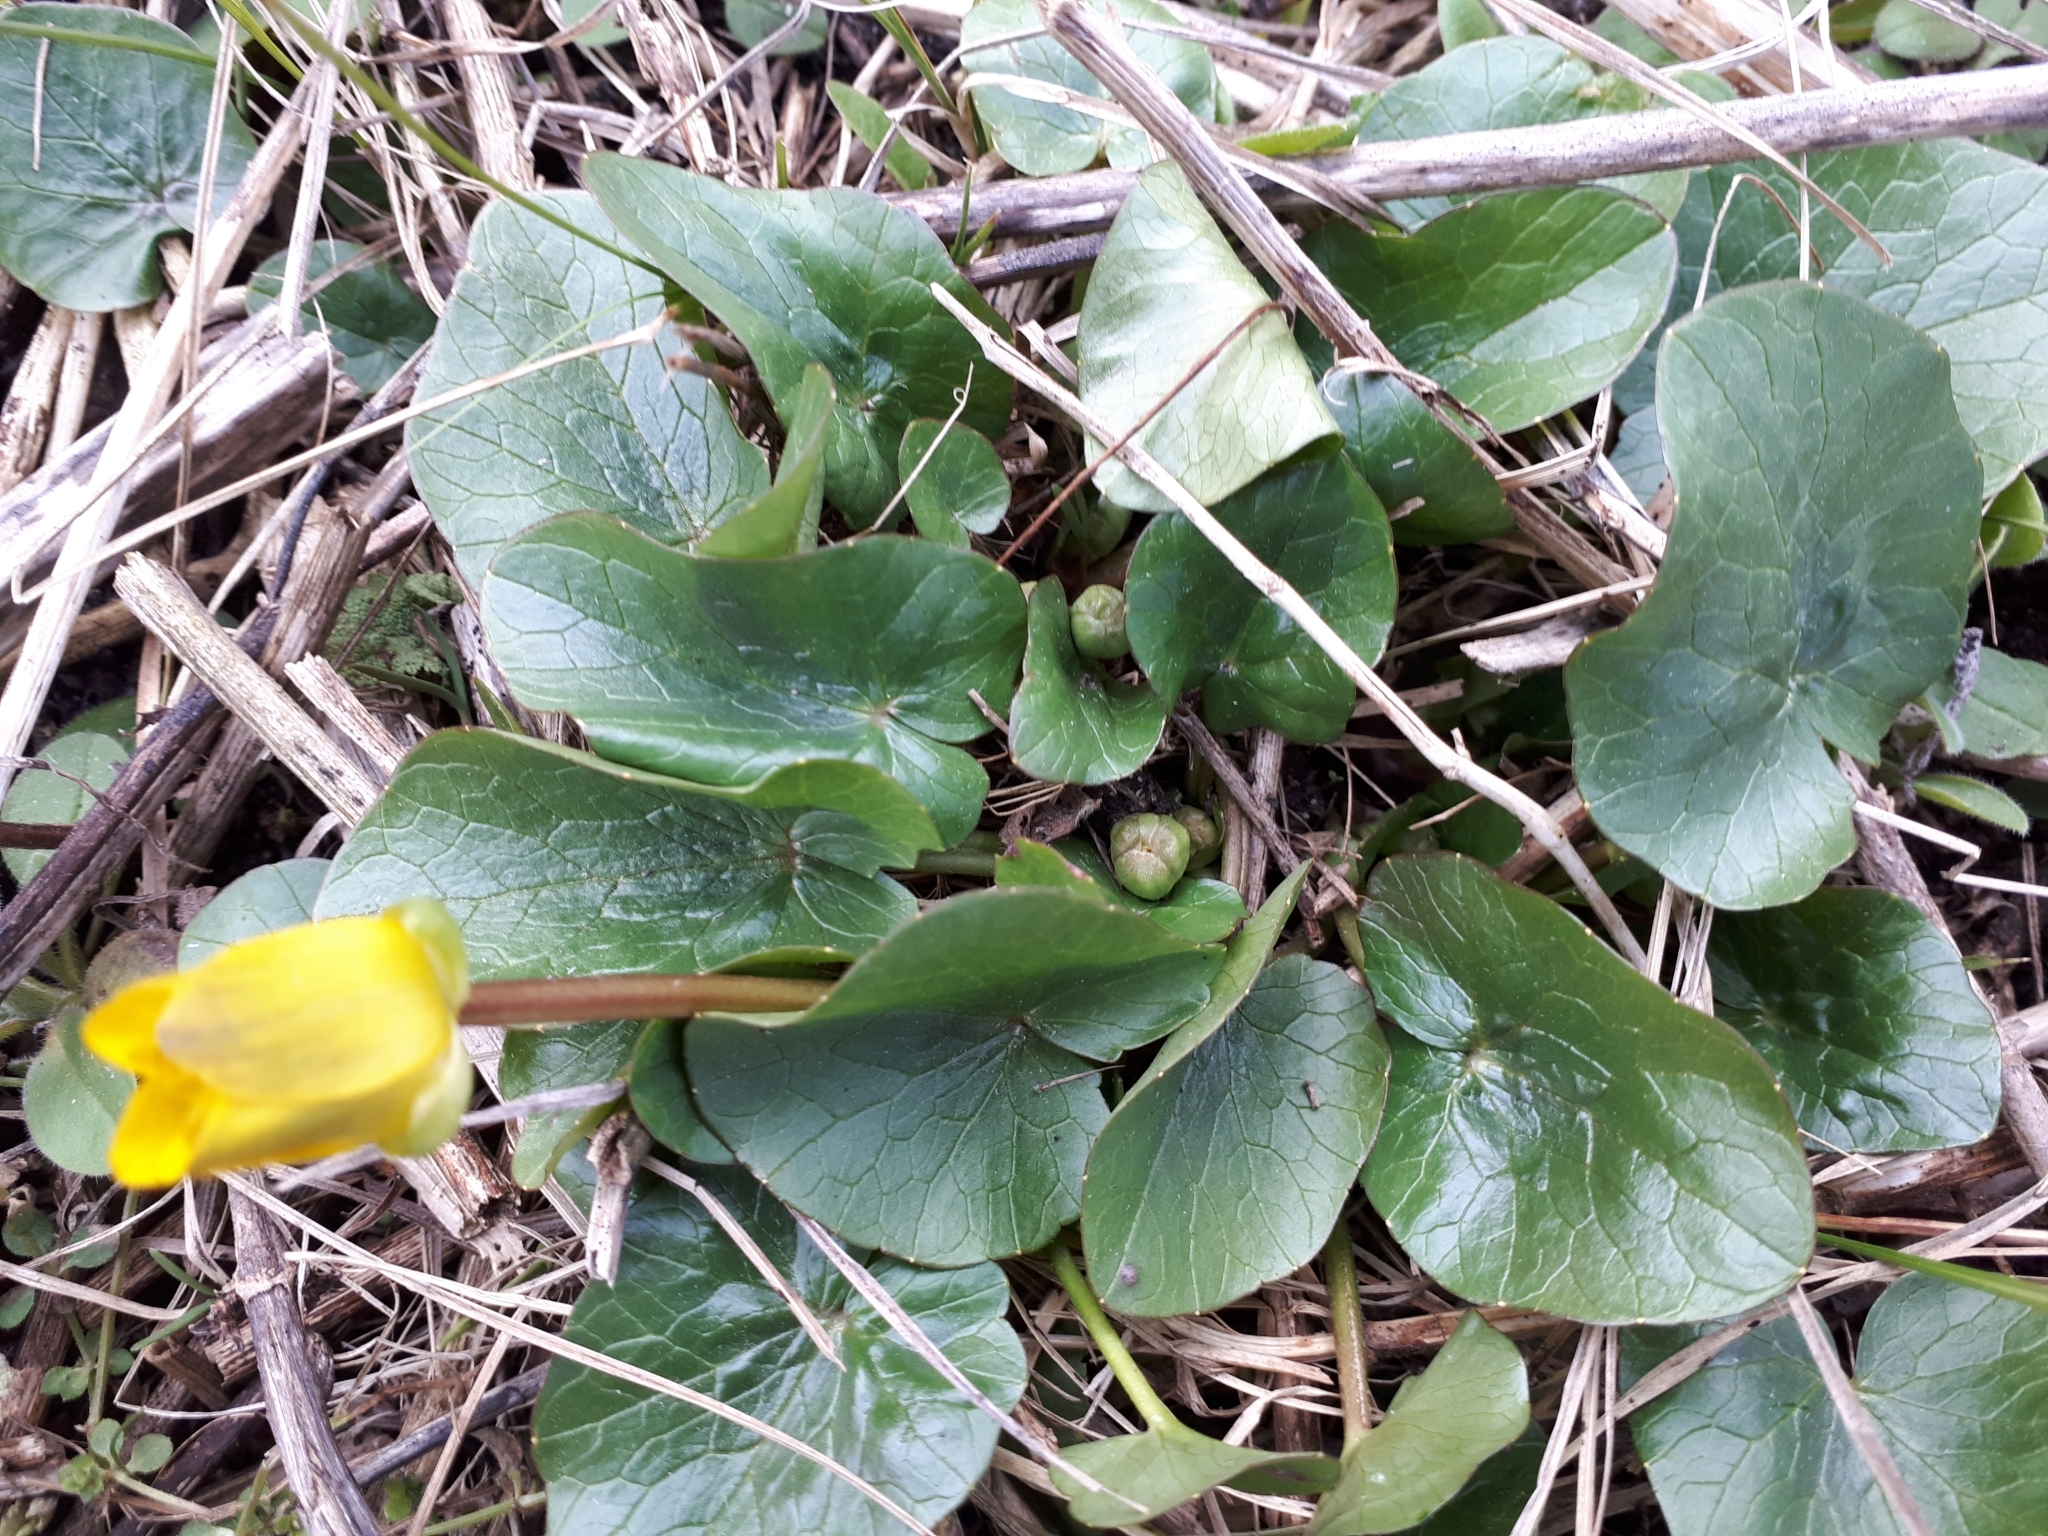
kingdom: Plantae
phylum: Tracheophyta
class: Magnoliopsida
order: Ranunculales
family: Ranunculaceae
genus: Ficaria
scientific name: Ficaria verna
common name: Lesser celandine
